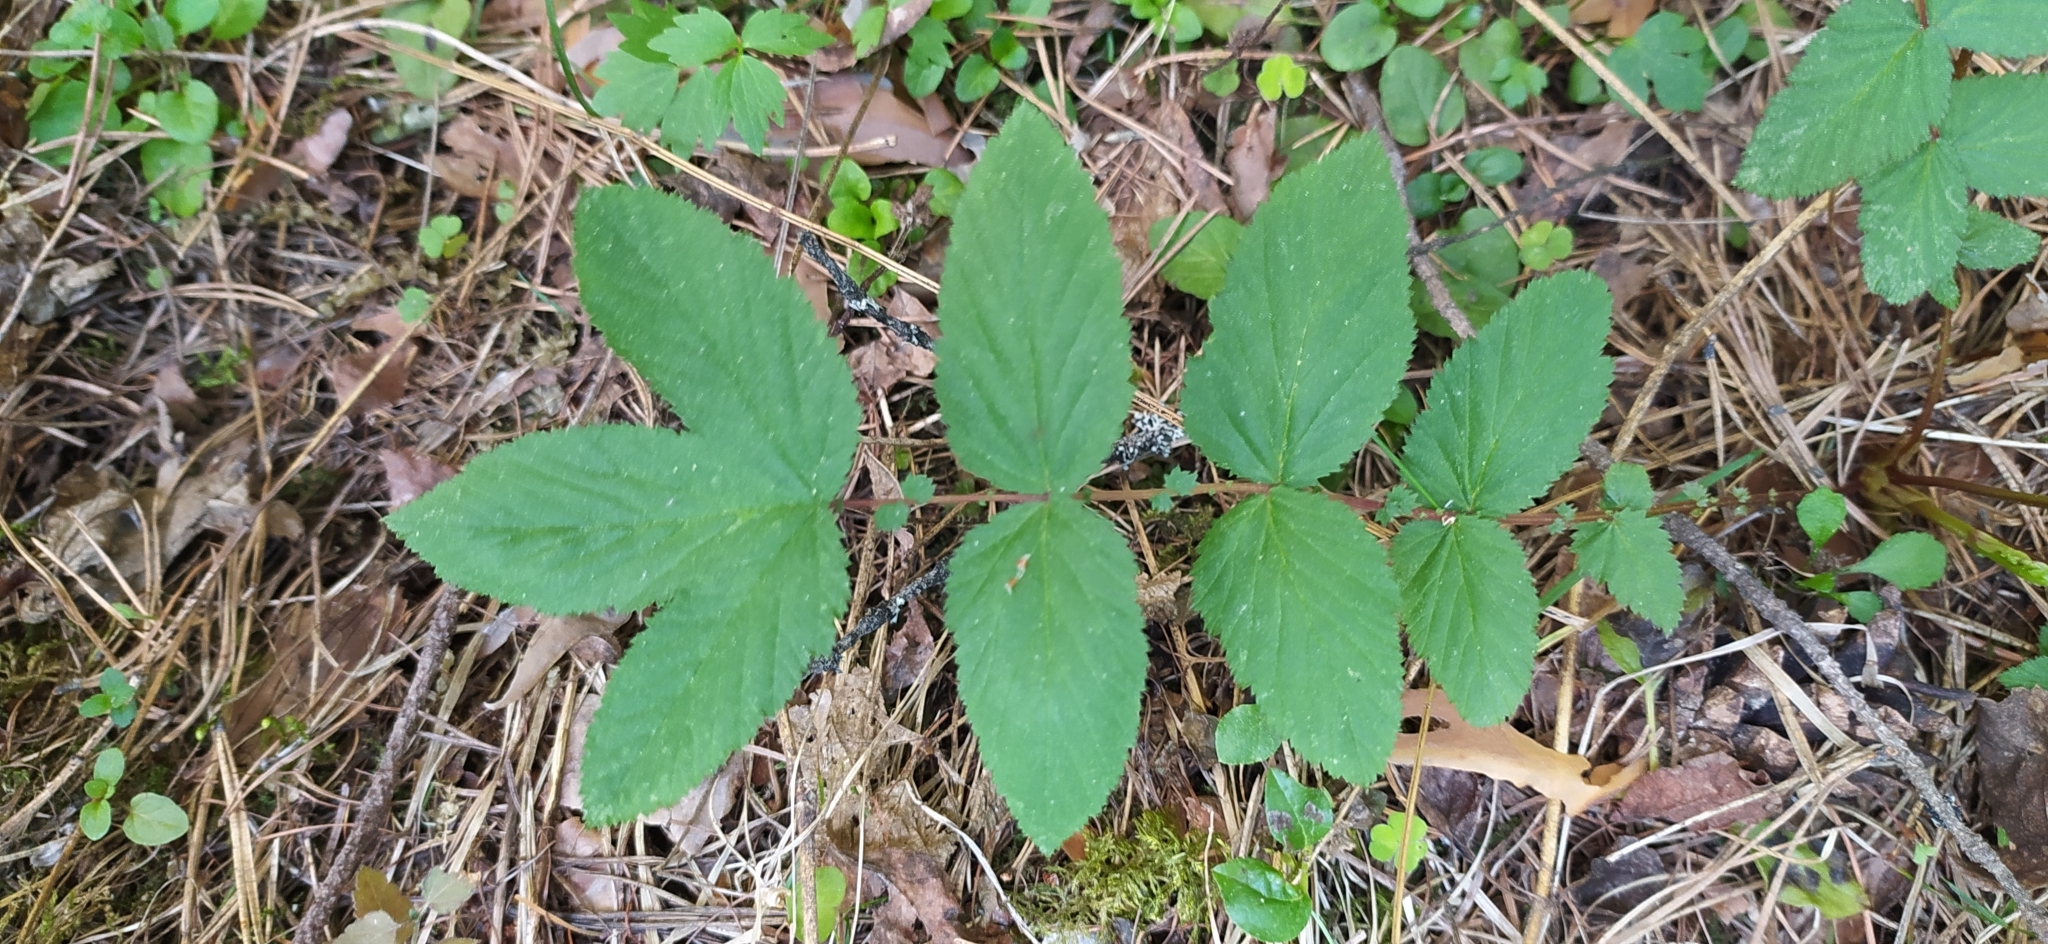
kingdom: Plantae
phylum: Tracheophyta
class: Magnoliopsida
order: Rosales
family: Rosaceae
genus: Filipendula
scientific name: Filipendula ulmaria
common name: Meadowsweet
